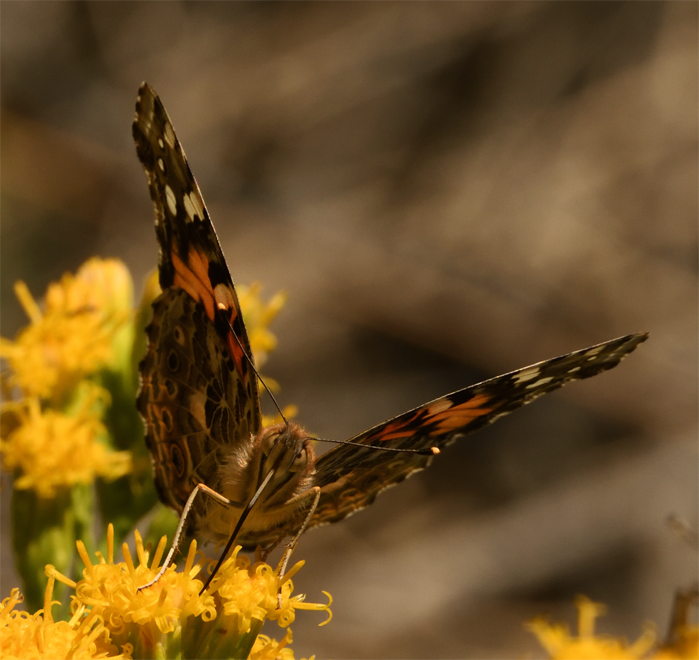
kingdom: Animalia
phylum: Arthropoda
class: Insecta
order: Lepidoptera
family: Nymphalidae
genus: Vanessa
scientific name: Vanessa cardui
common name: Painted lady
